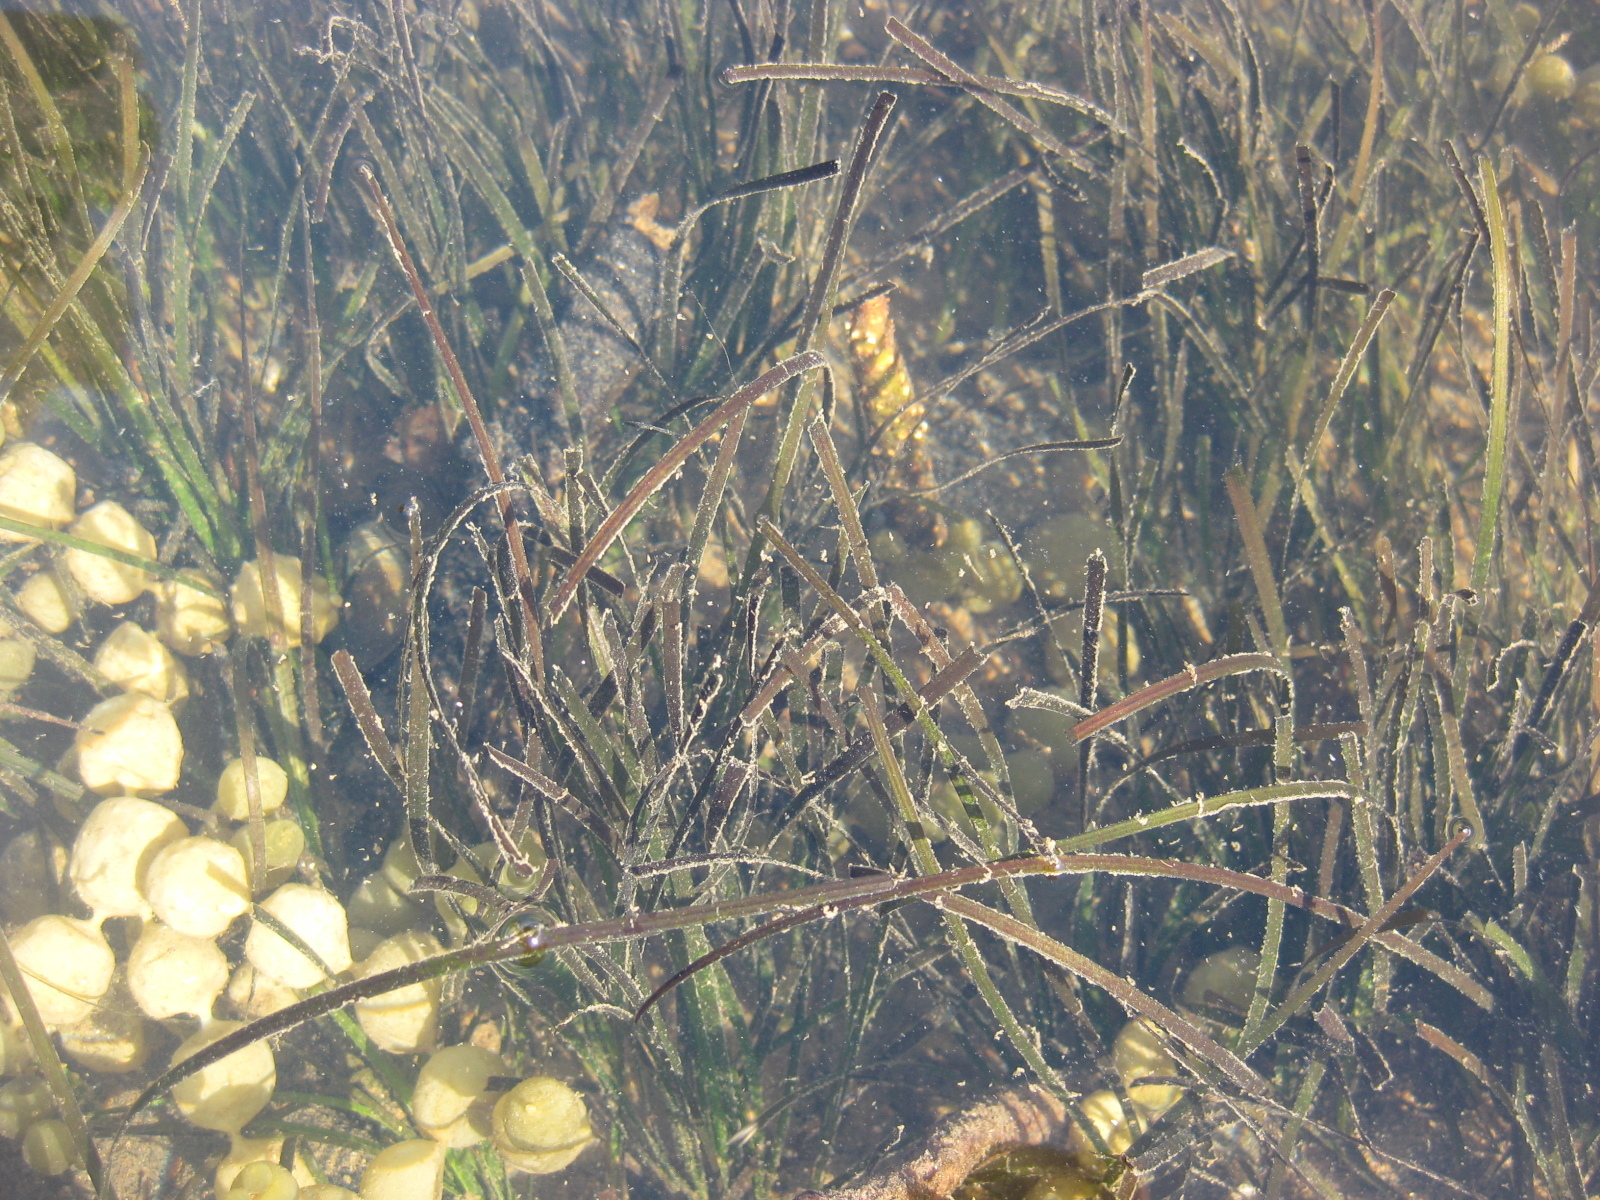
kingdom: Plantae
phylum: Tracheophyta
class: Liliopsida
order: Alismatales
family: Zosteraceae
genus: Zostera
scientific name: Zostera novazelandica
